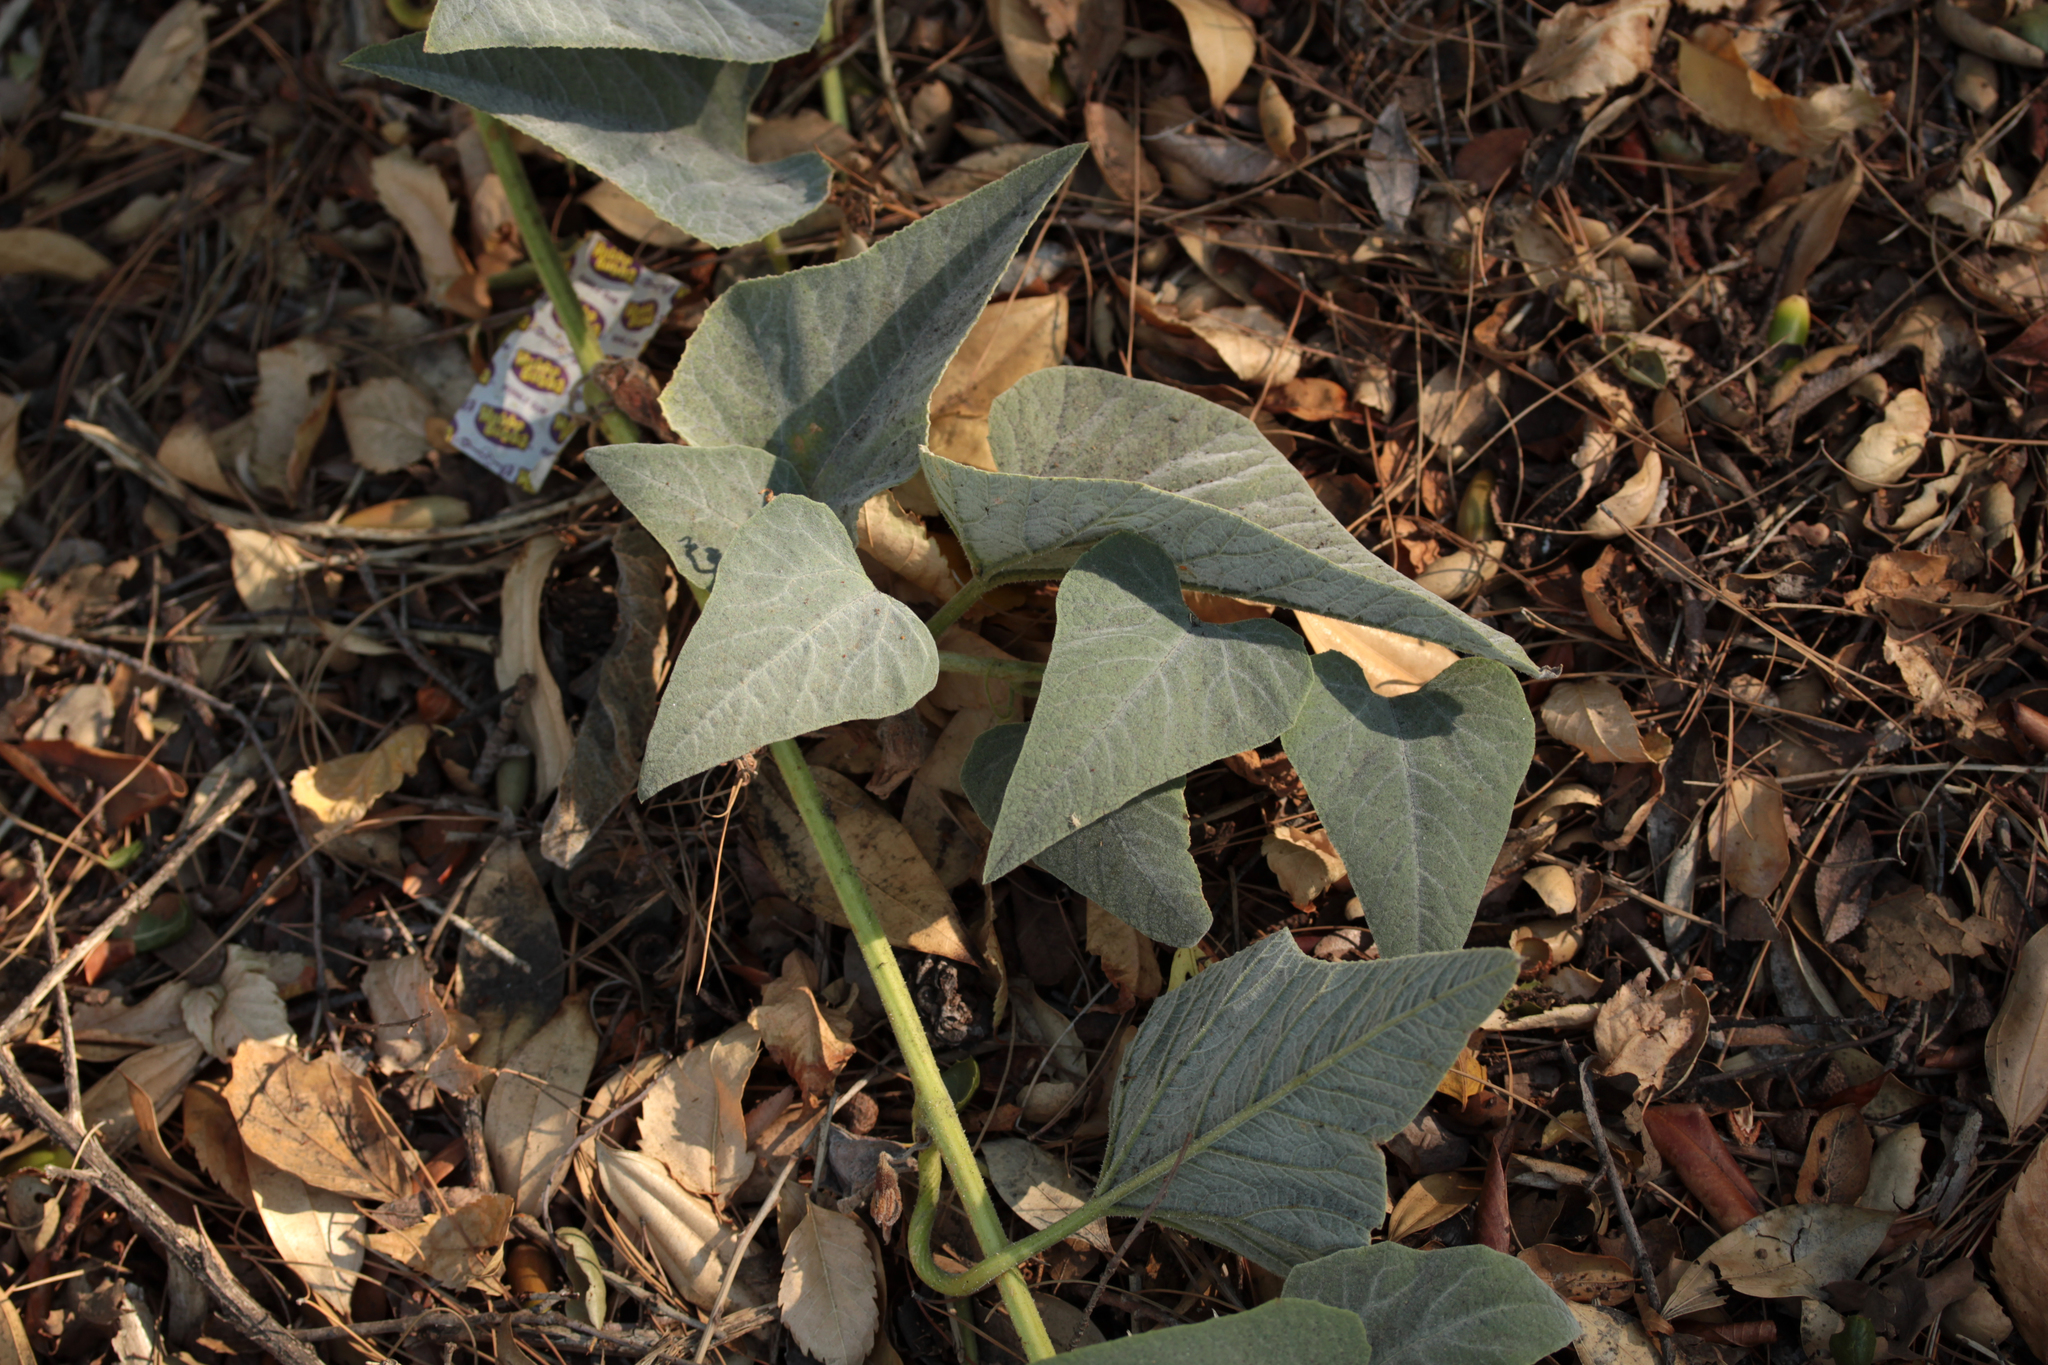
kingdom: Plantae
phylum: Tracheophyta
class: Magnoliopsida
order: Cucurbitales
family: Cucurbitaceae
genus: Cucurbita
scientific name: Cucurbita foetidissima
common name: Buffalo gourd
